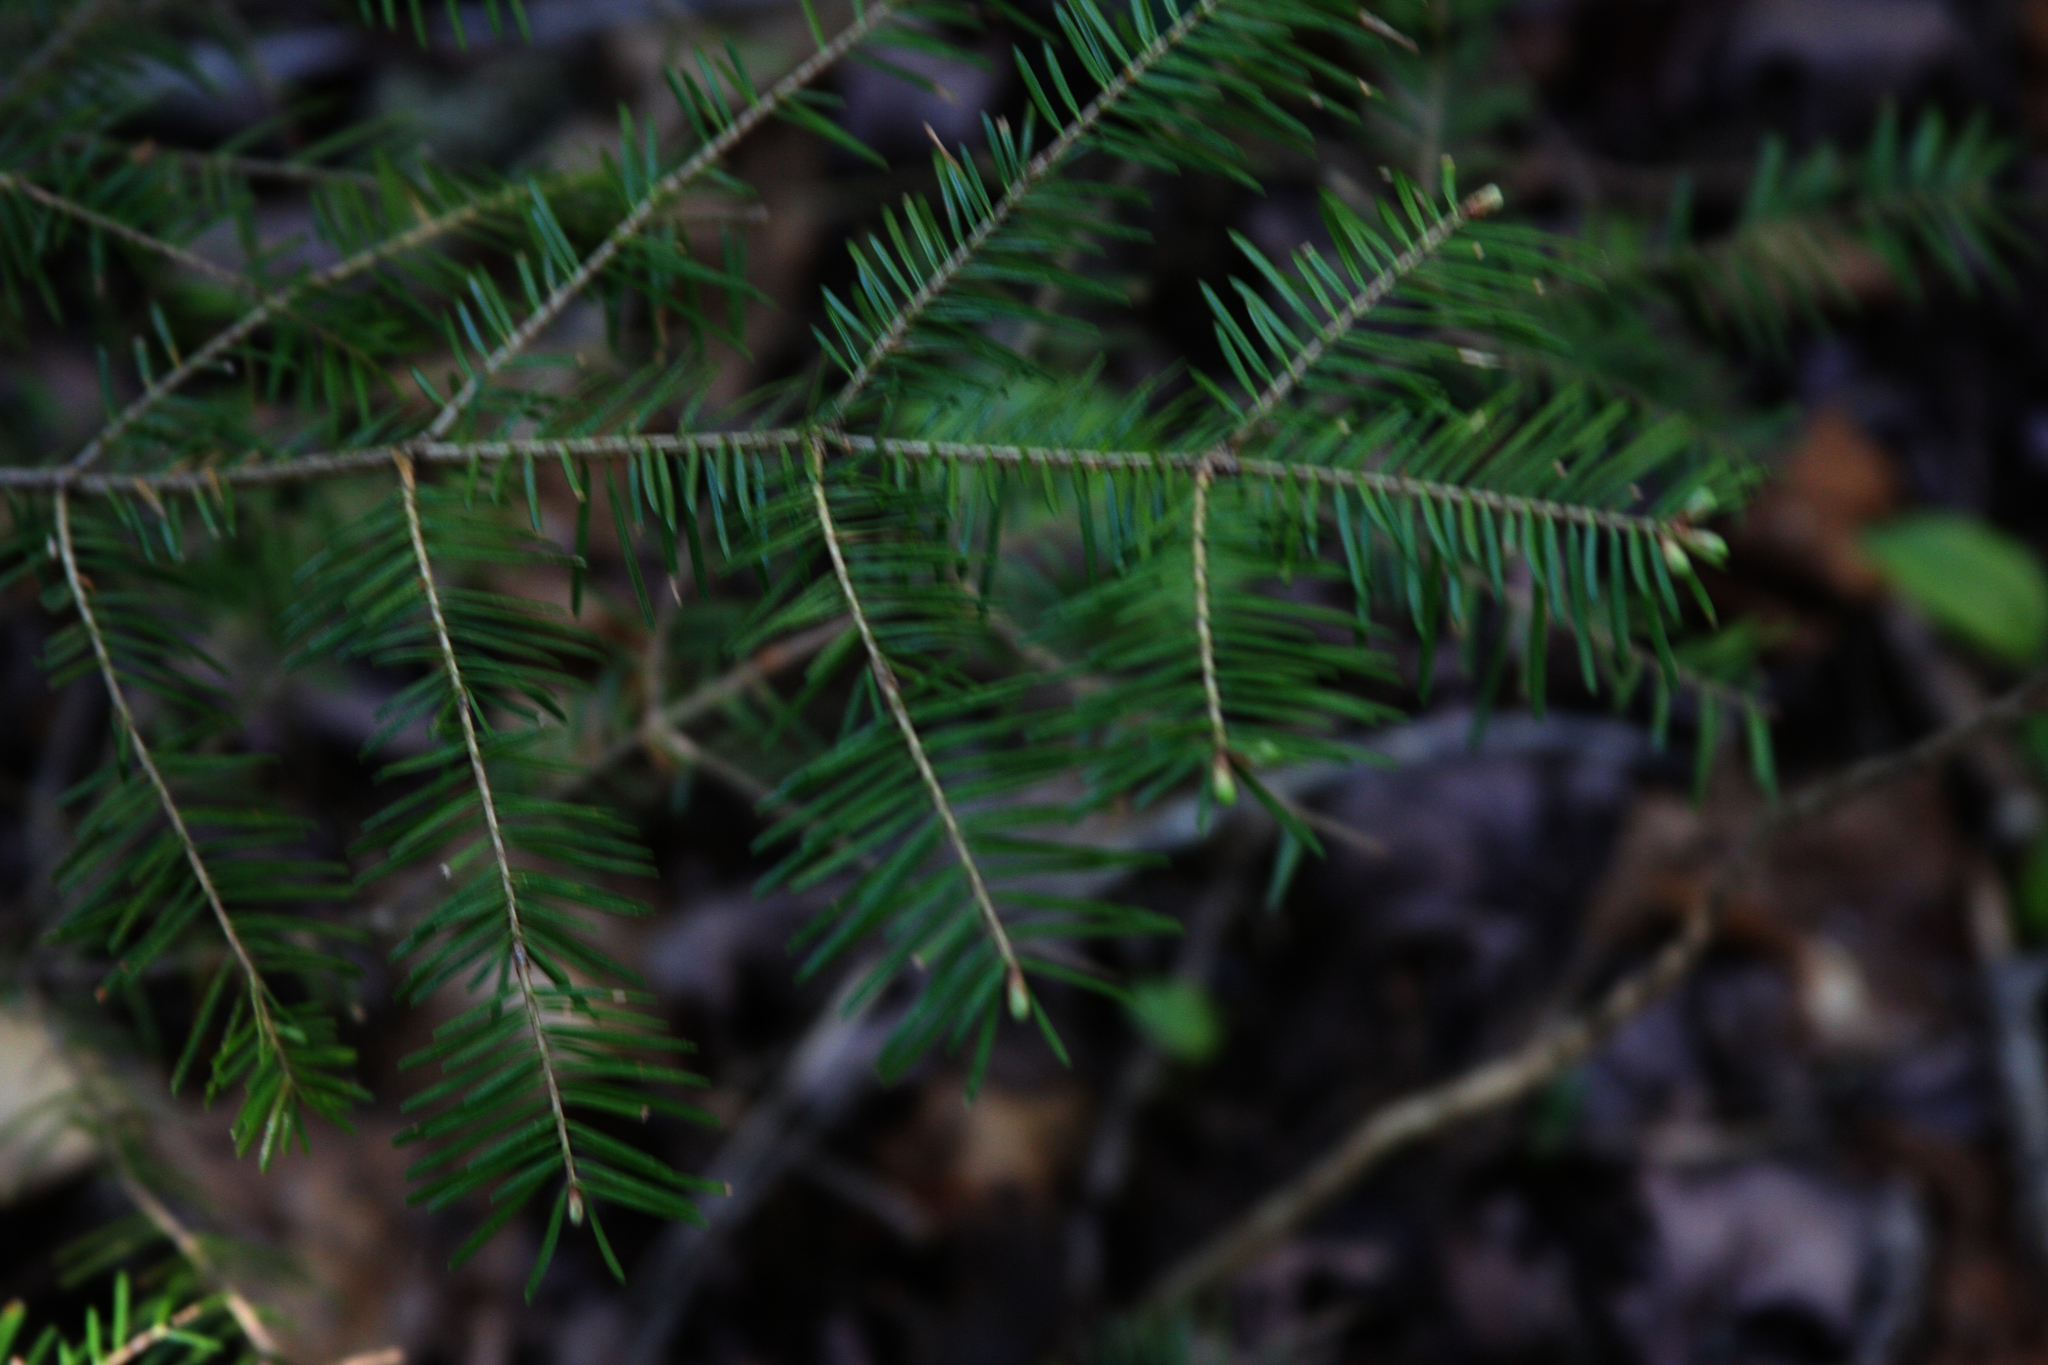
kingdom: Plantae
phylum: Tracheophyta
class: Pinopsida
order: Pinales
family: Pinaceae
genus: Abies
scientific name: Abies balsamea
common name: Balsam fir
